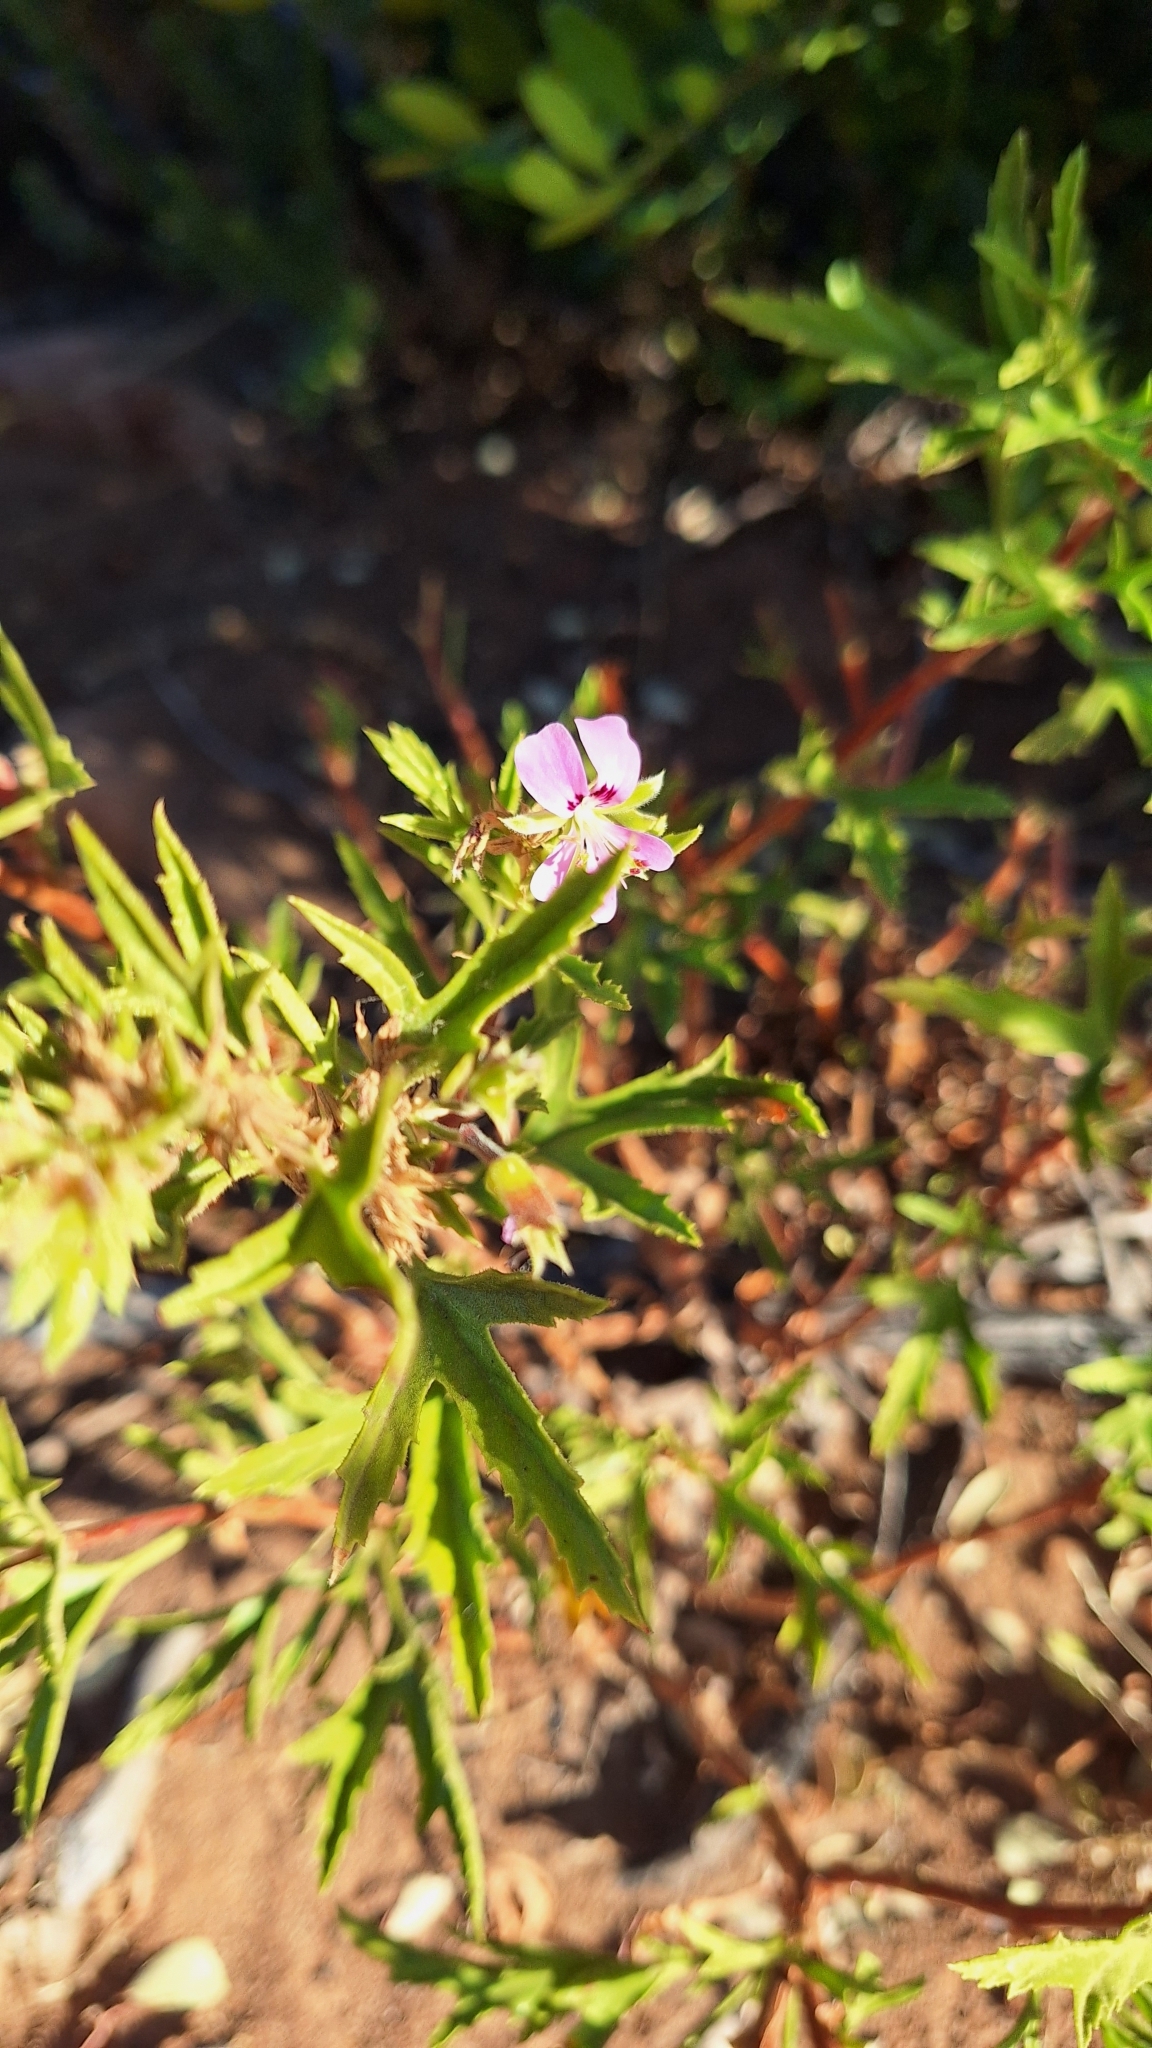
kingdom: Plantae
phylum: Tracheophyta
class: Magnoliopsida
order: Geraniales
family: Geraniaceae
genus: Pelargonium
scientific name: Pelargonium scabrum
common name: Apricot geranium
